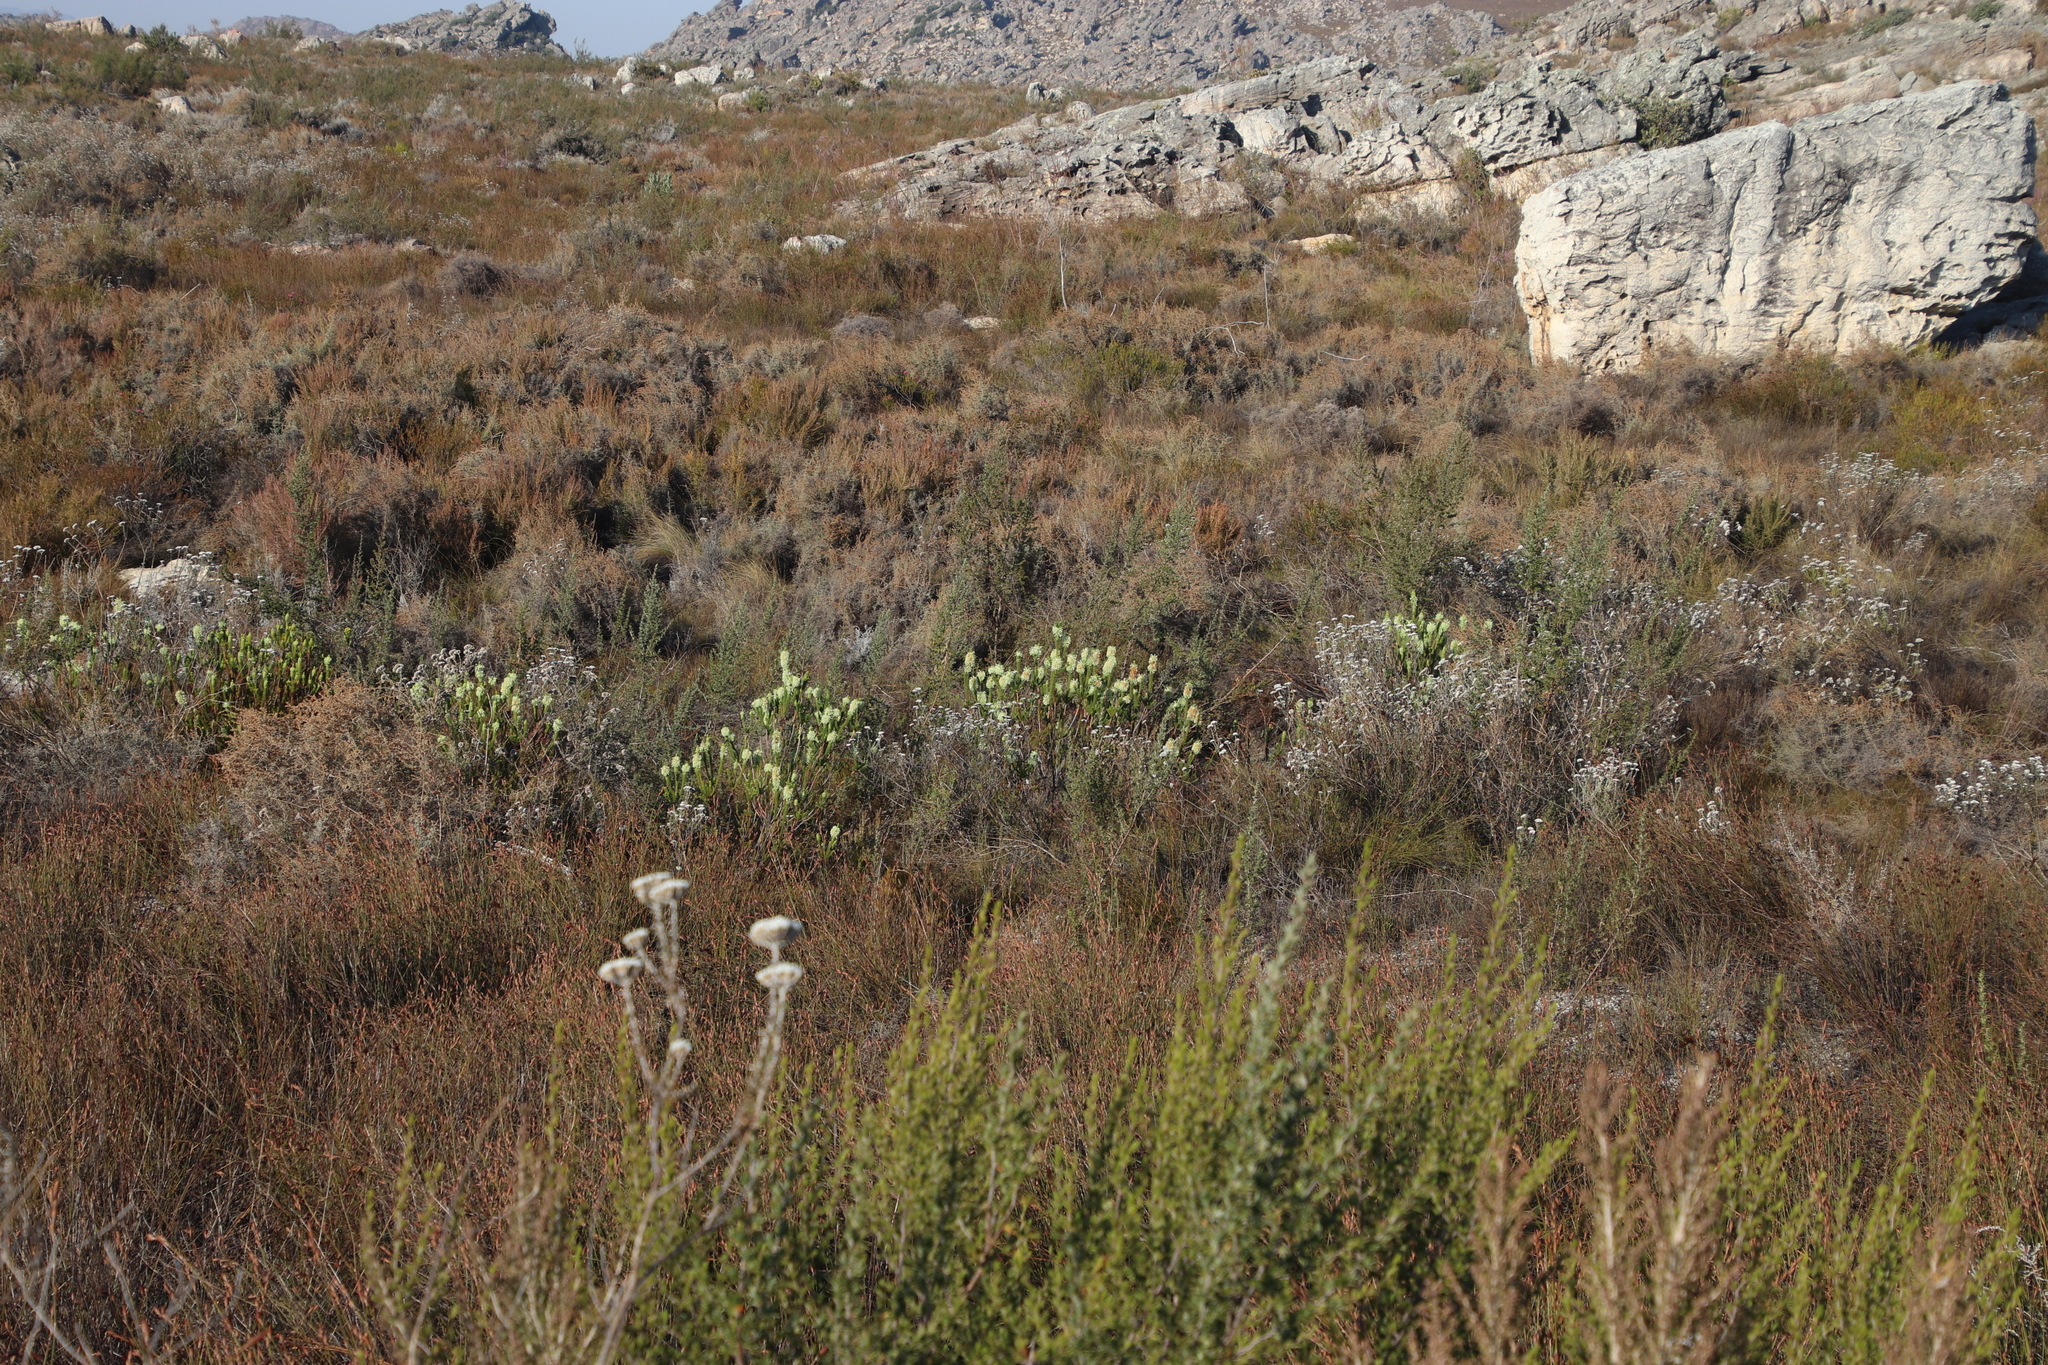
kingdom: Plantae
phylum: Tracheophyta
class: Magnoliopsida
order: Ericales
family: Ericaceae
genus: Erica
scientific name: Erica sessiliflora
